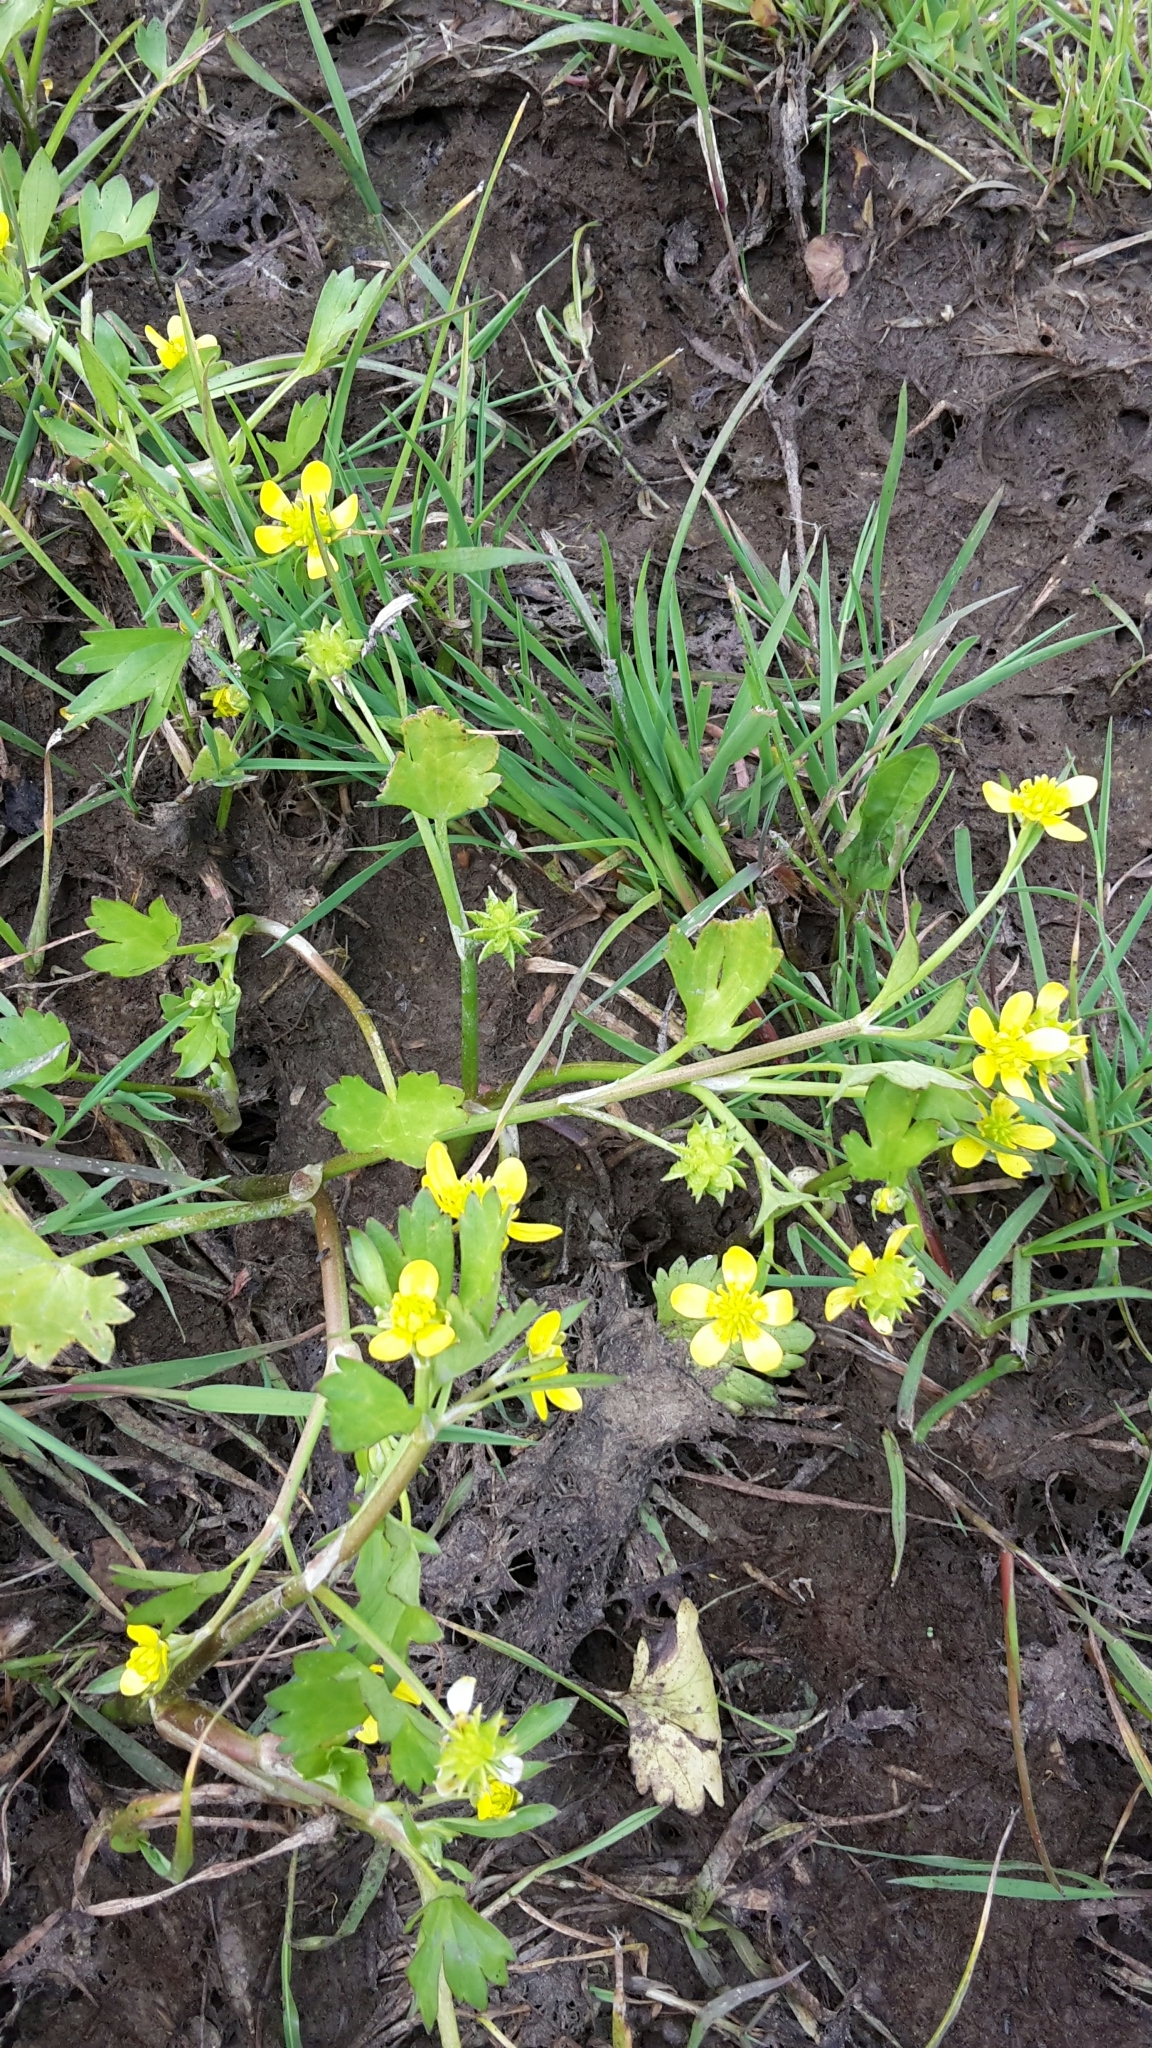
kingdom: Plantae
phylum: Tracheophyta
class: Magnoliopsida
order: Ranunculales
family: Ranunculaceae
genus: Ranunculus
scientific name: Ranunculus muricatus
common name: Rough-fruited buttercup
